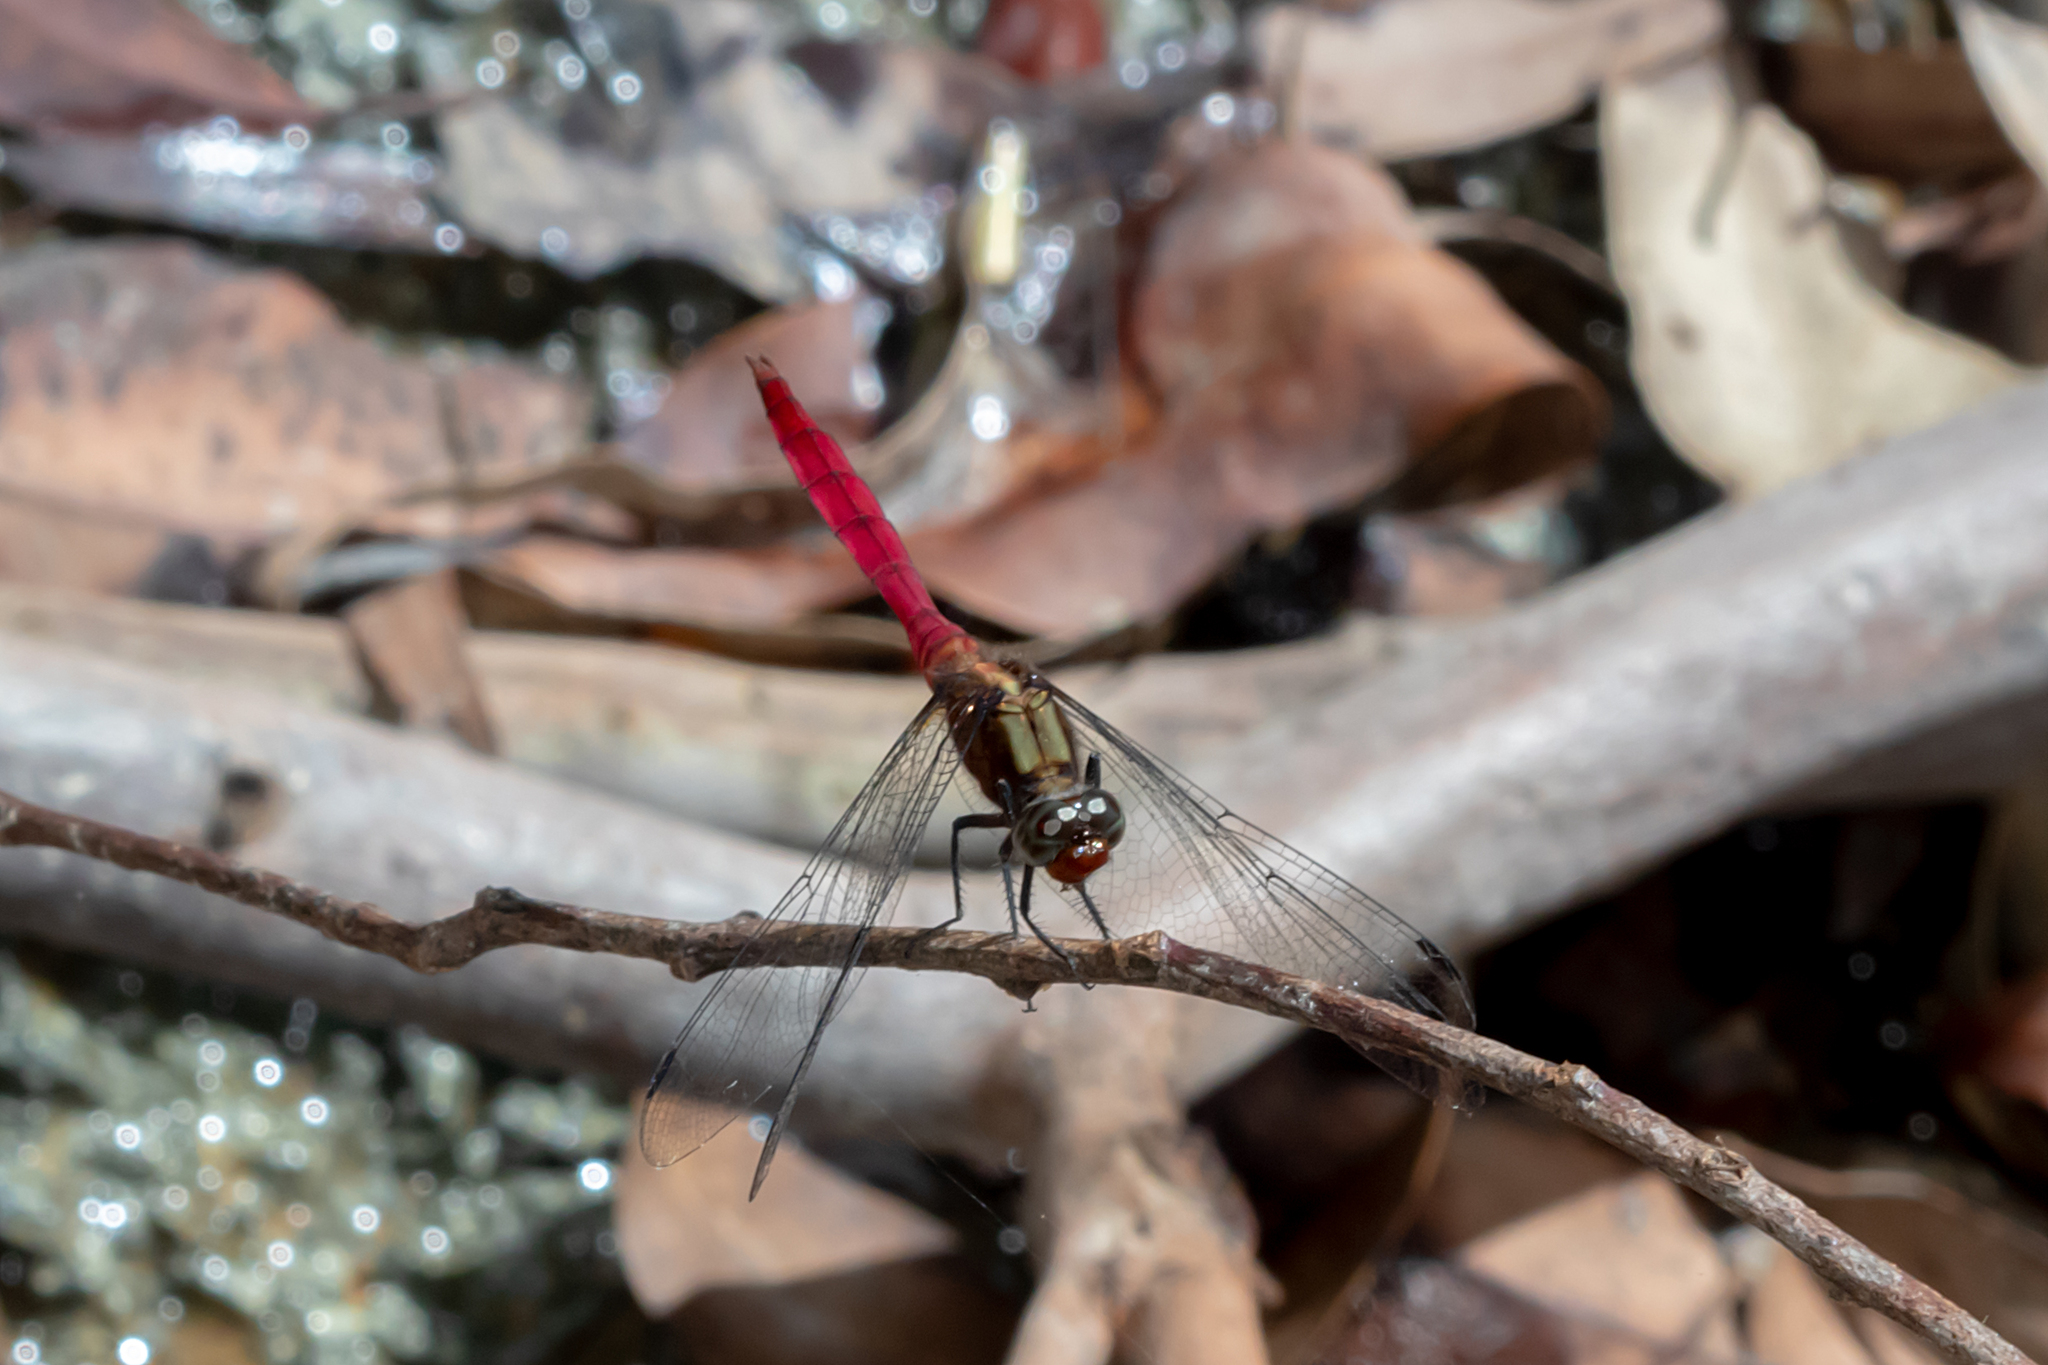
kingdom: Animalia
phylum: Arthropoda
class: Insecta
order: Odonata
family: Libellulidae
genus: Orthetrum
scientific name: Orthetrum villosovittatum
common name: Firery skimmer
